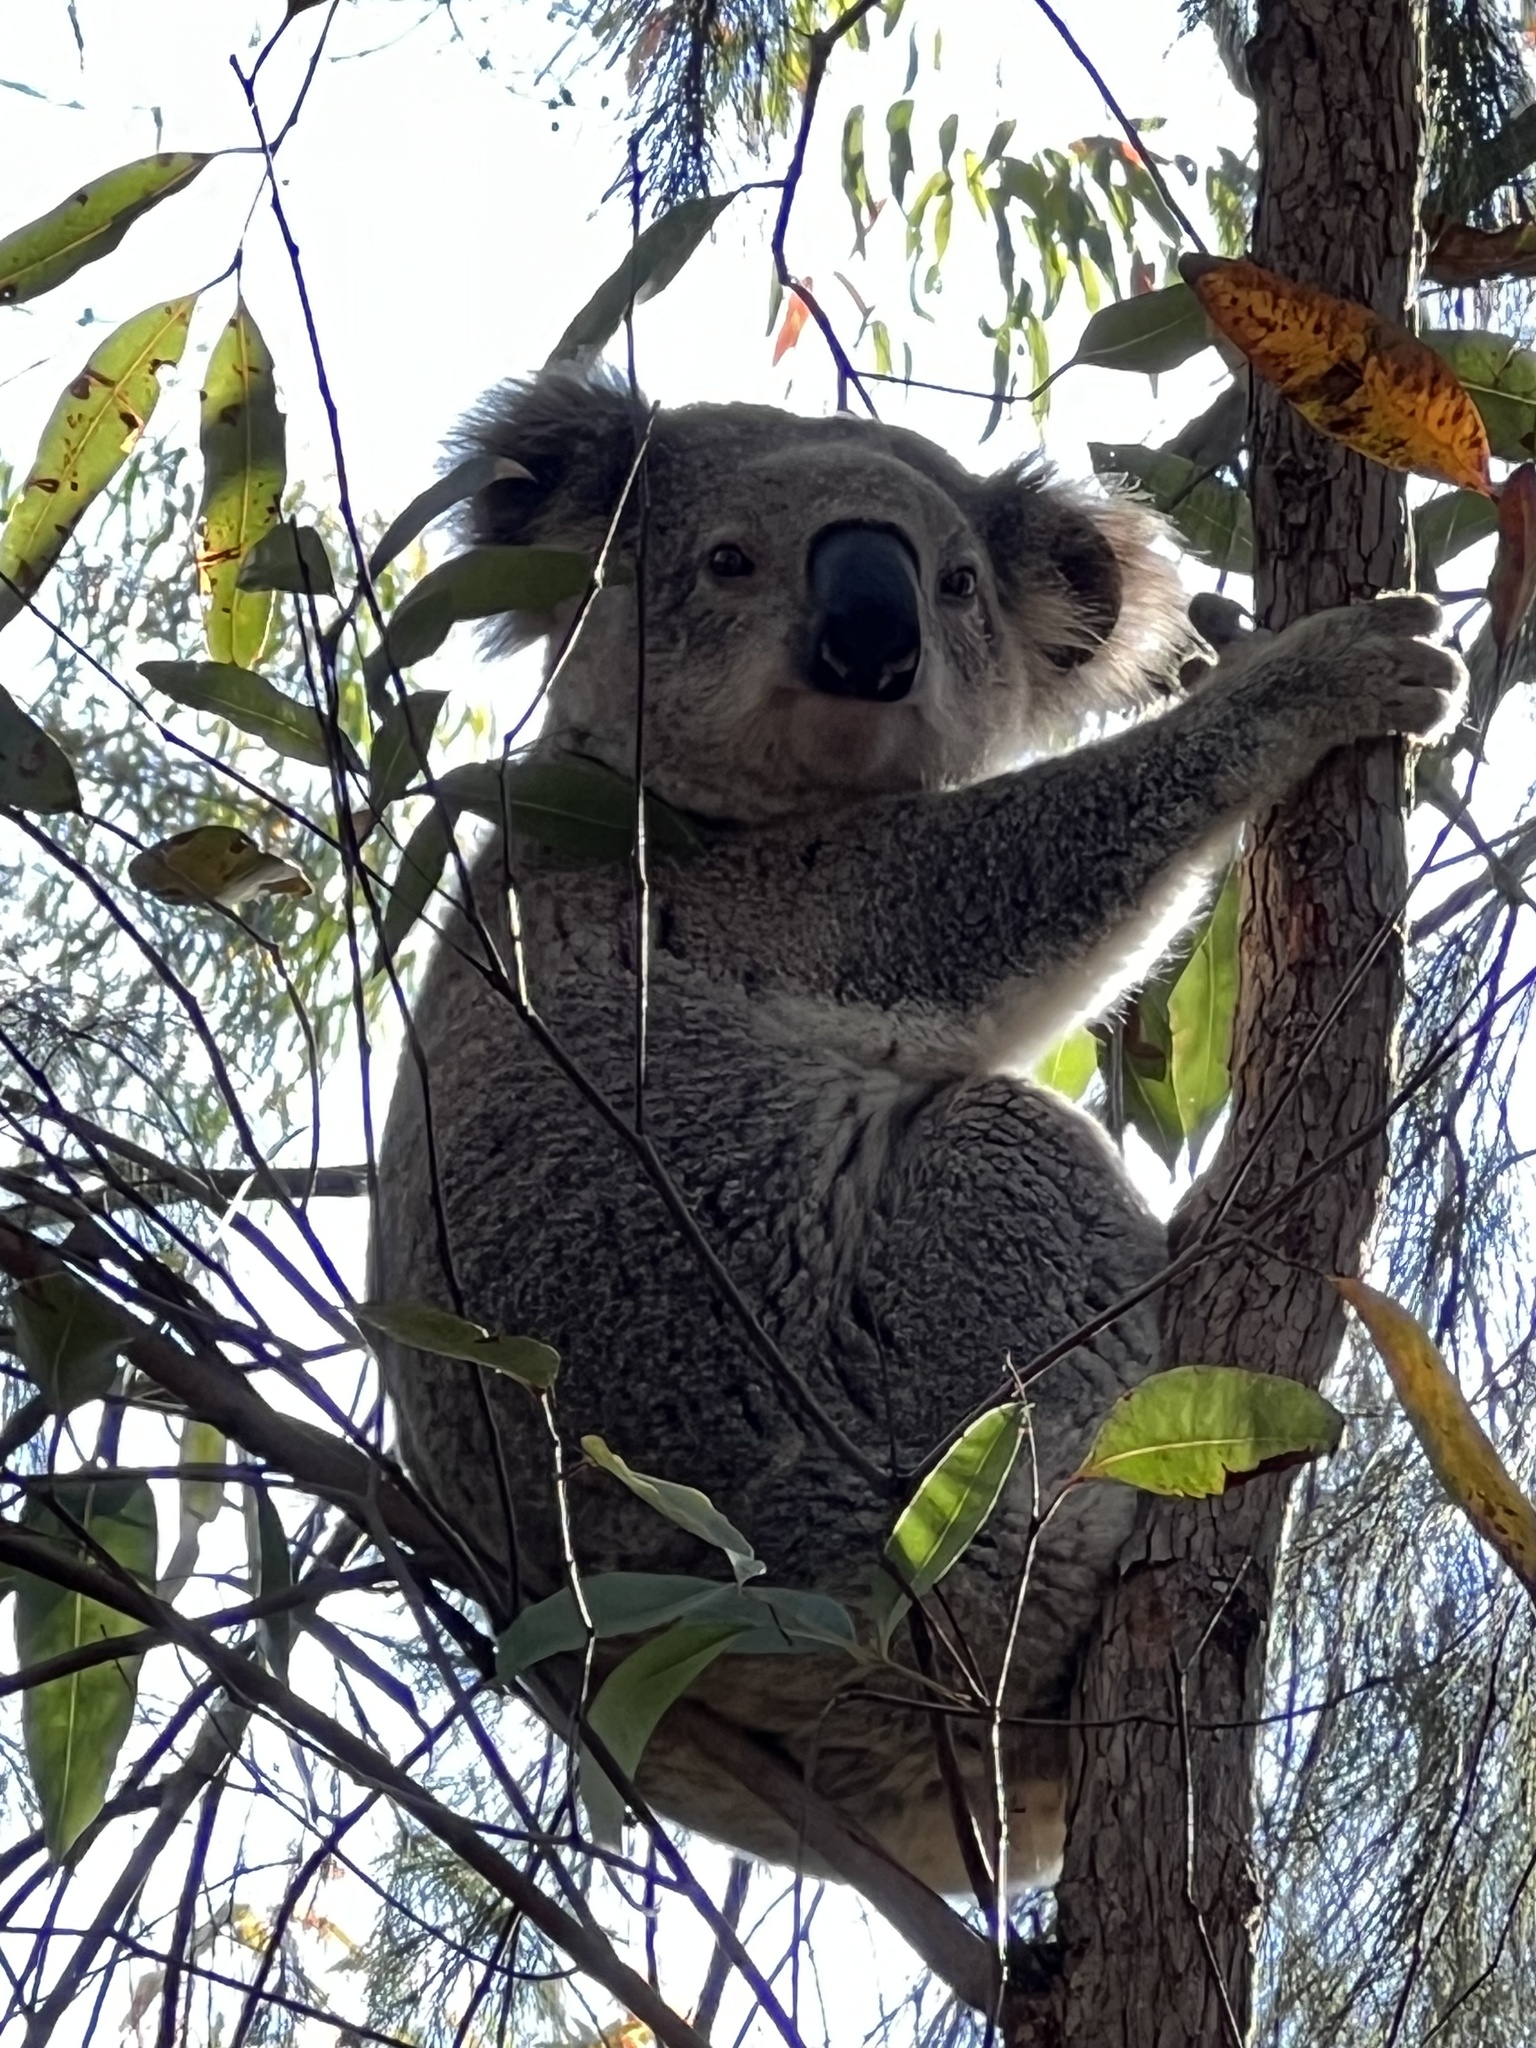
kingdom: Animalia
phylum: Chordata
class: Mammalia
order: Diprotodontia
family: Phascolarctidae
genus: Phascolarctos
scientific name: Phascolarctos cinereus
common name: Koala
